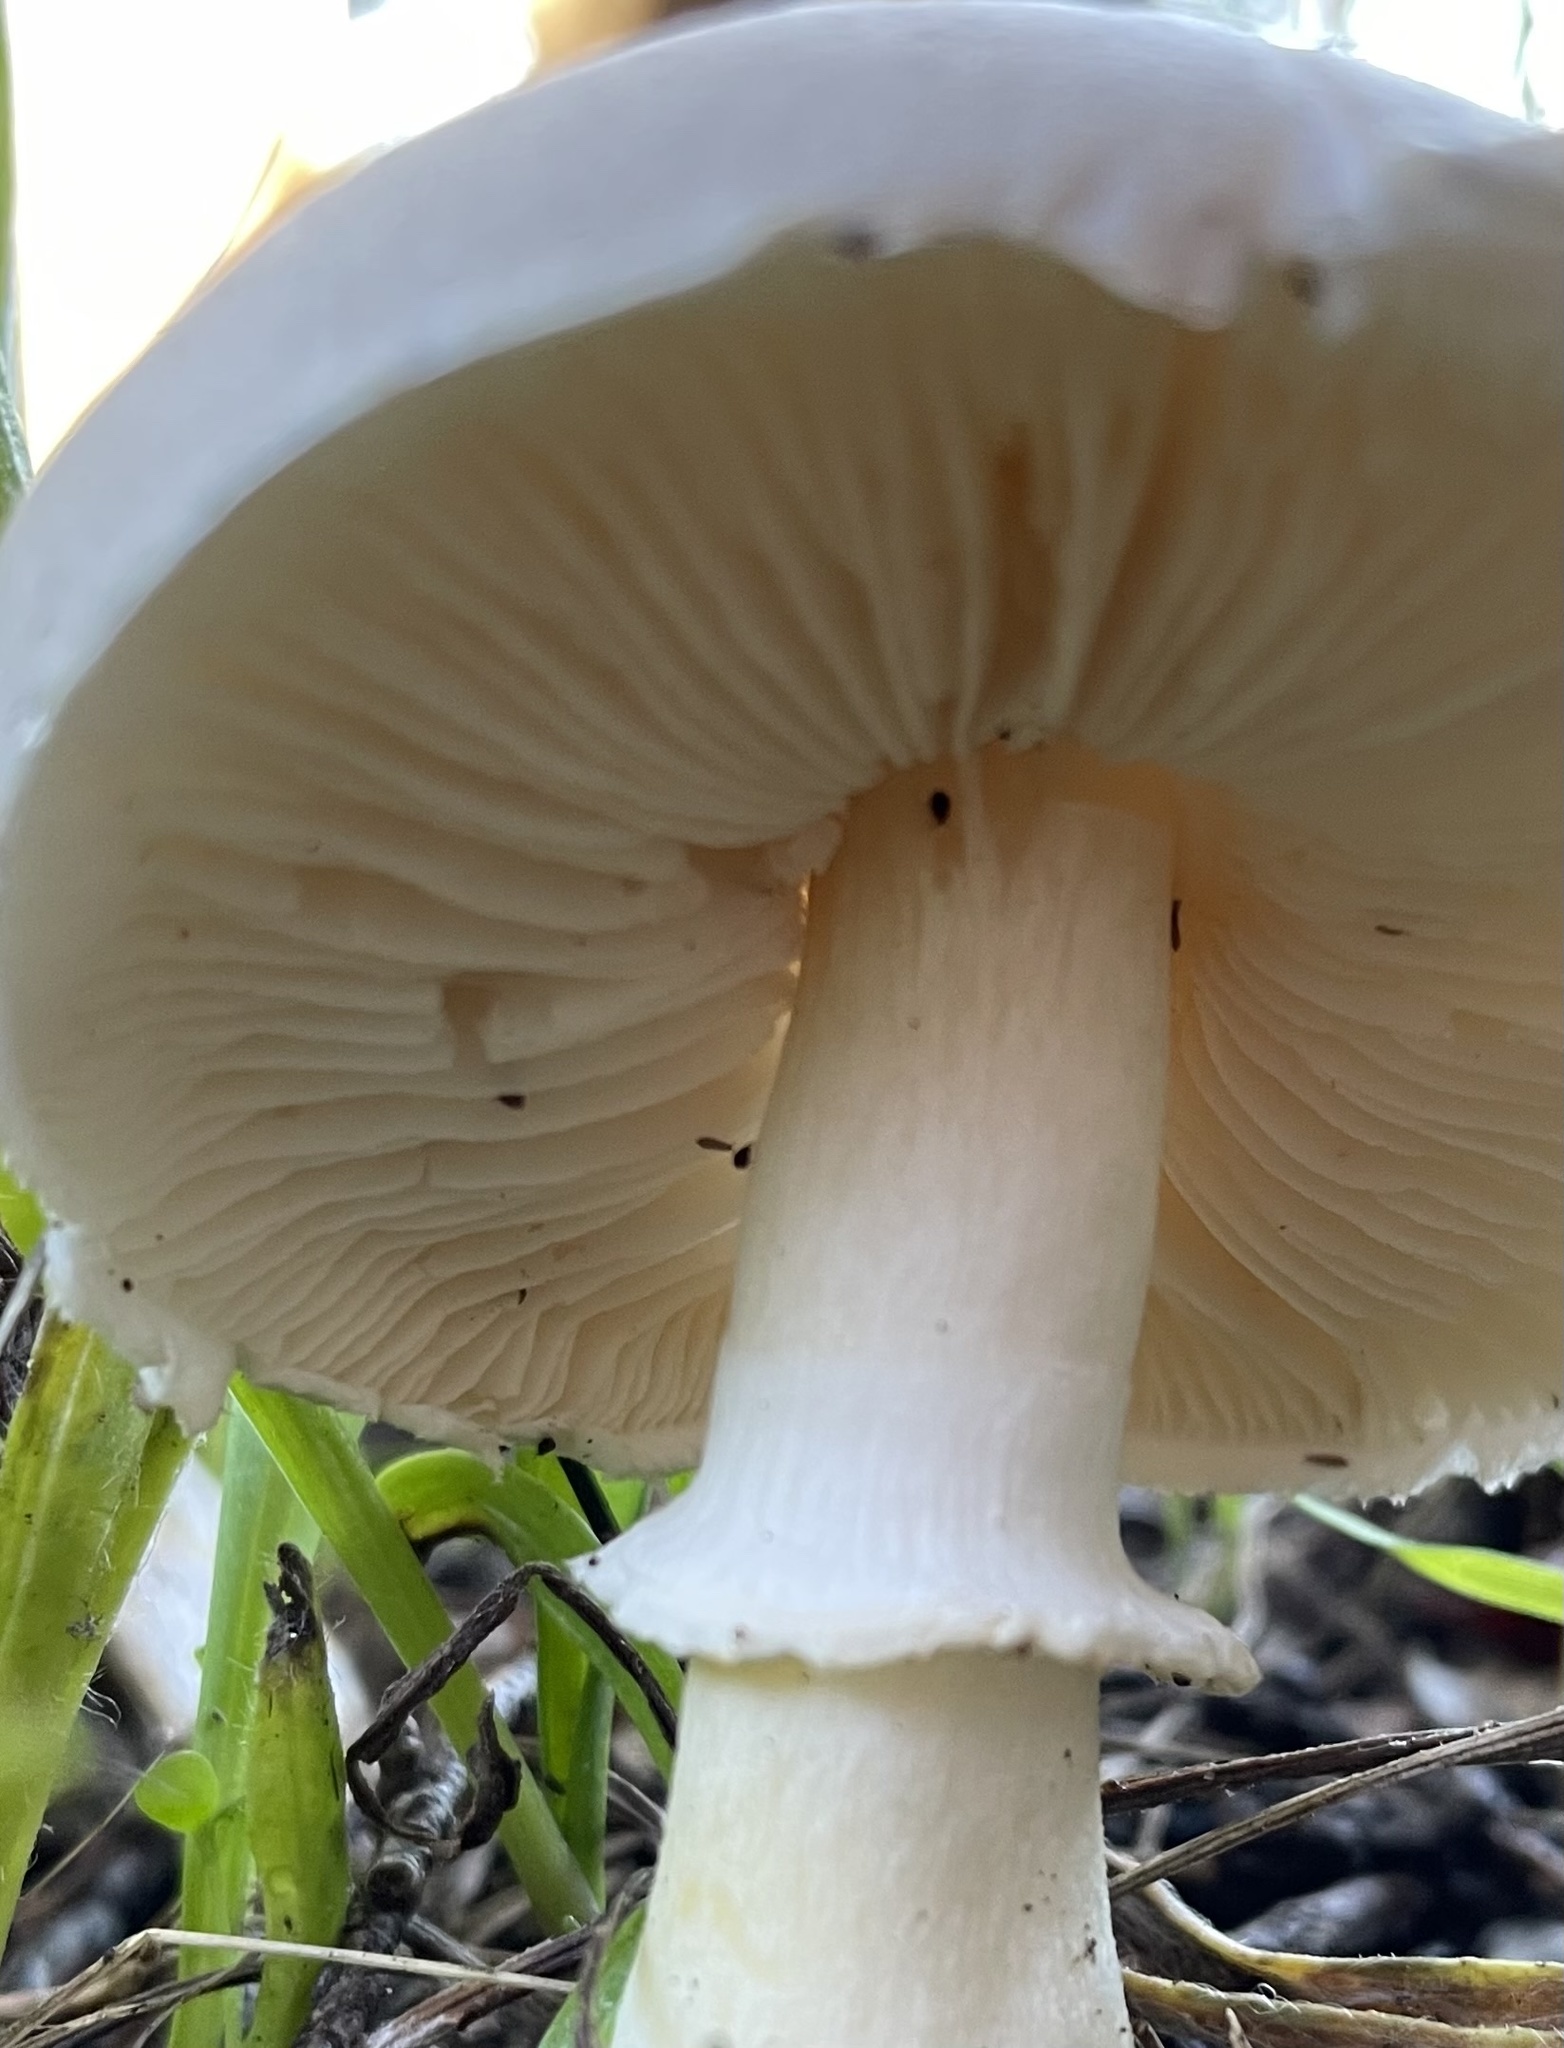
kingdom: Fungi
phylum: Basidiomycota
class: Agaricomycetes
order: Agaricales
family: Agaricaceae
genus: Leucoagaricus
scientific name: Leucoagaricus leucothites
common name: White dapperling
